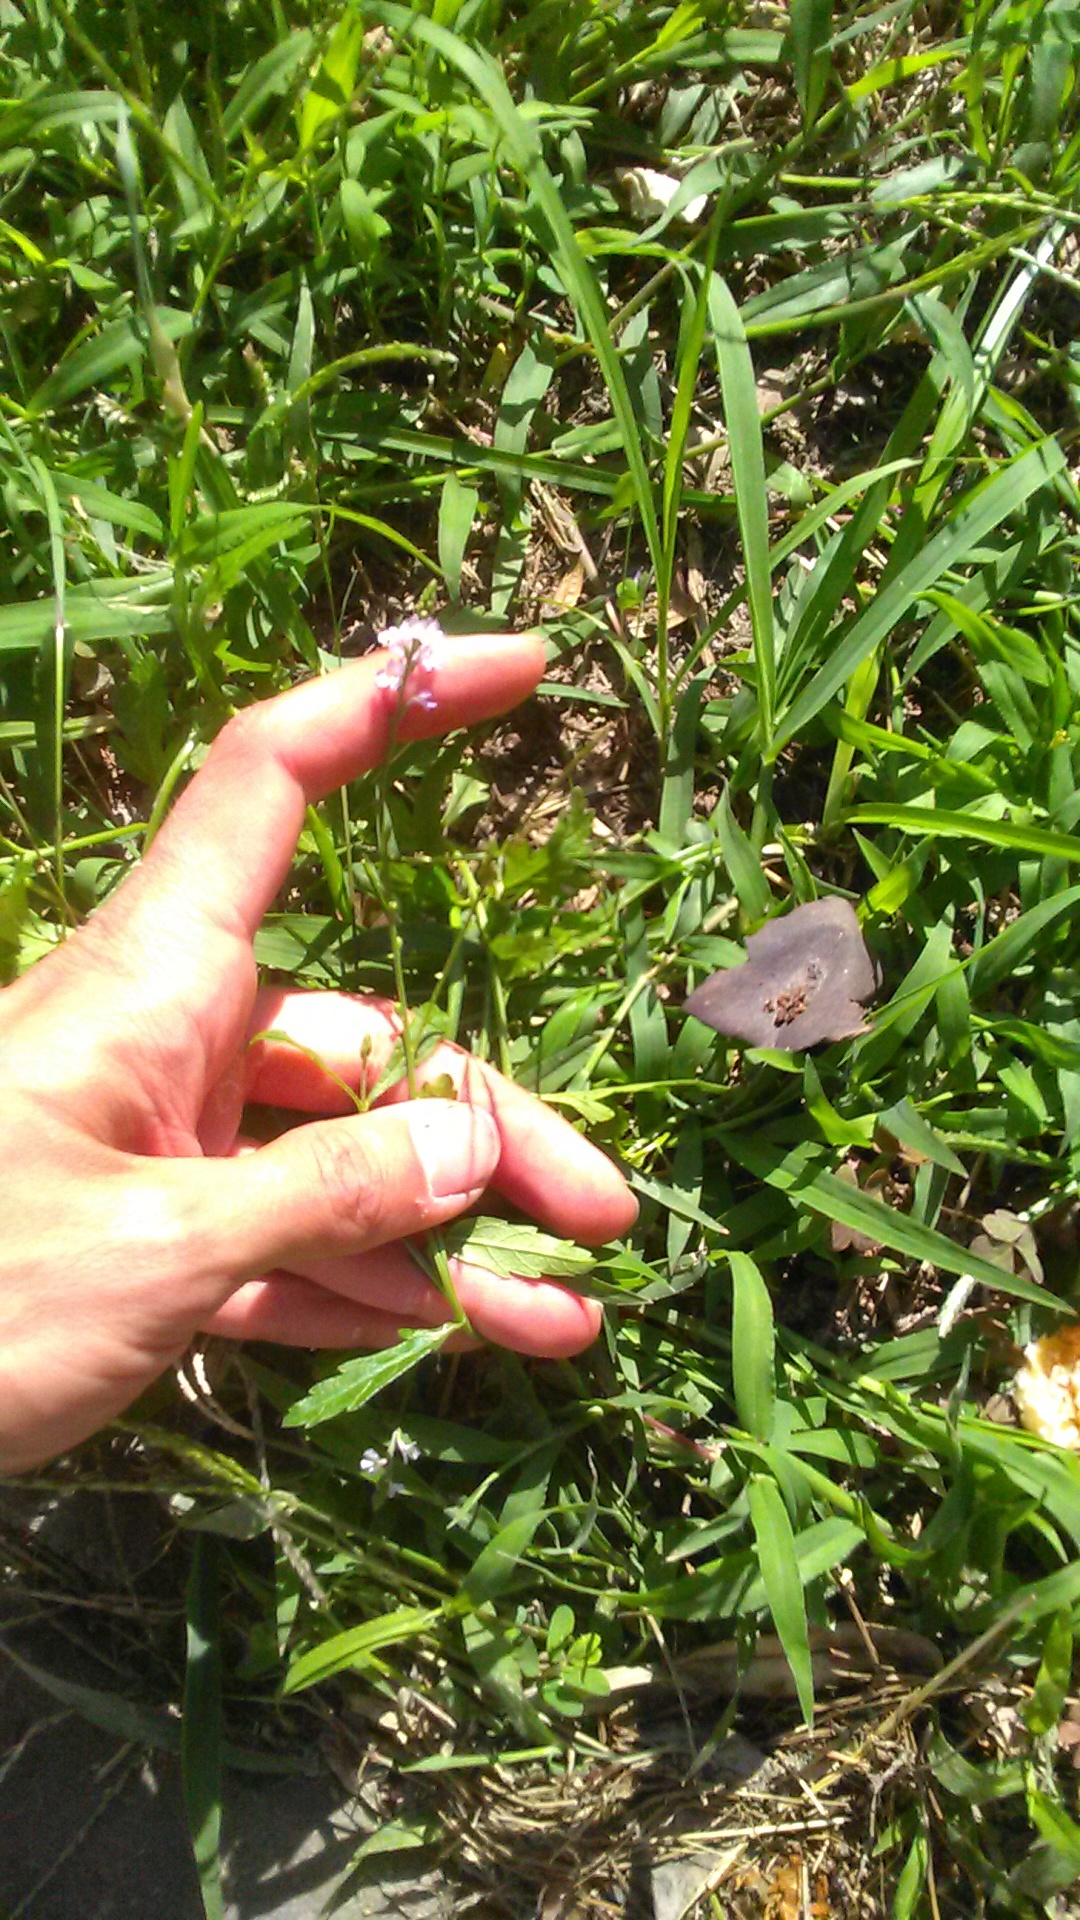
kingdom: Plantae
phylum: Tracheophyta
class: Magnoliopsida
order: Lamiales
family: Verbenaceae
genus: Verbena
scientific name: Verbena officinalis
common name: Vervain
